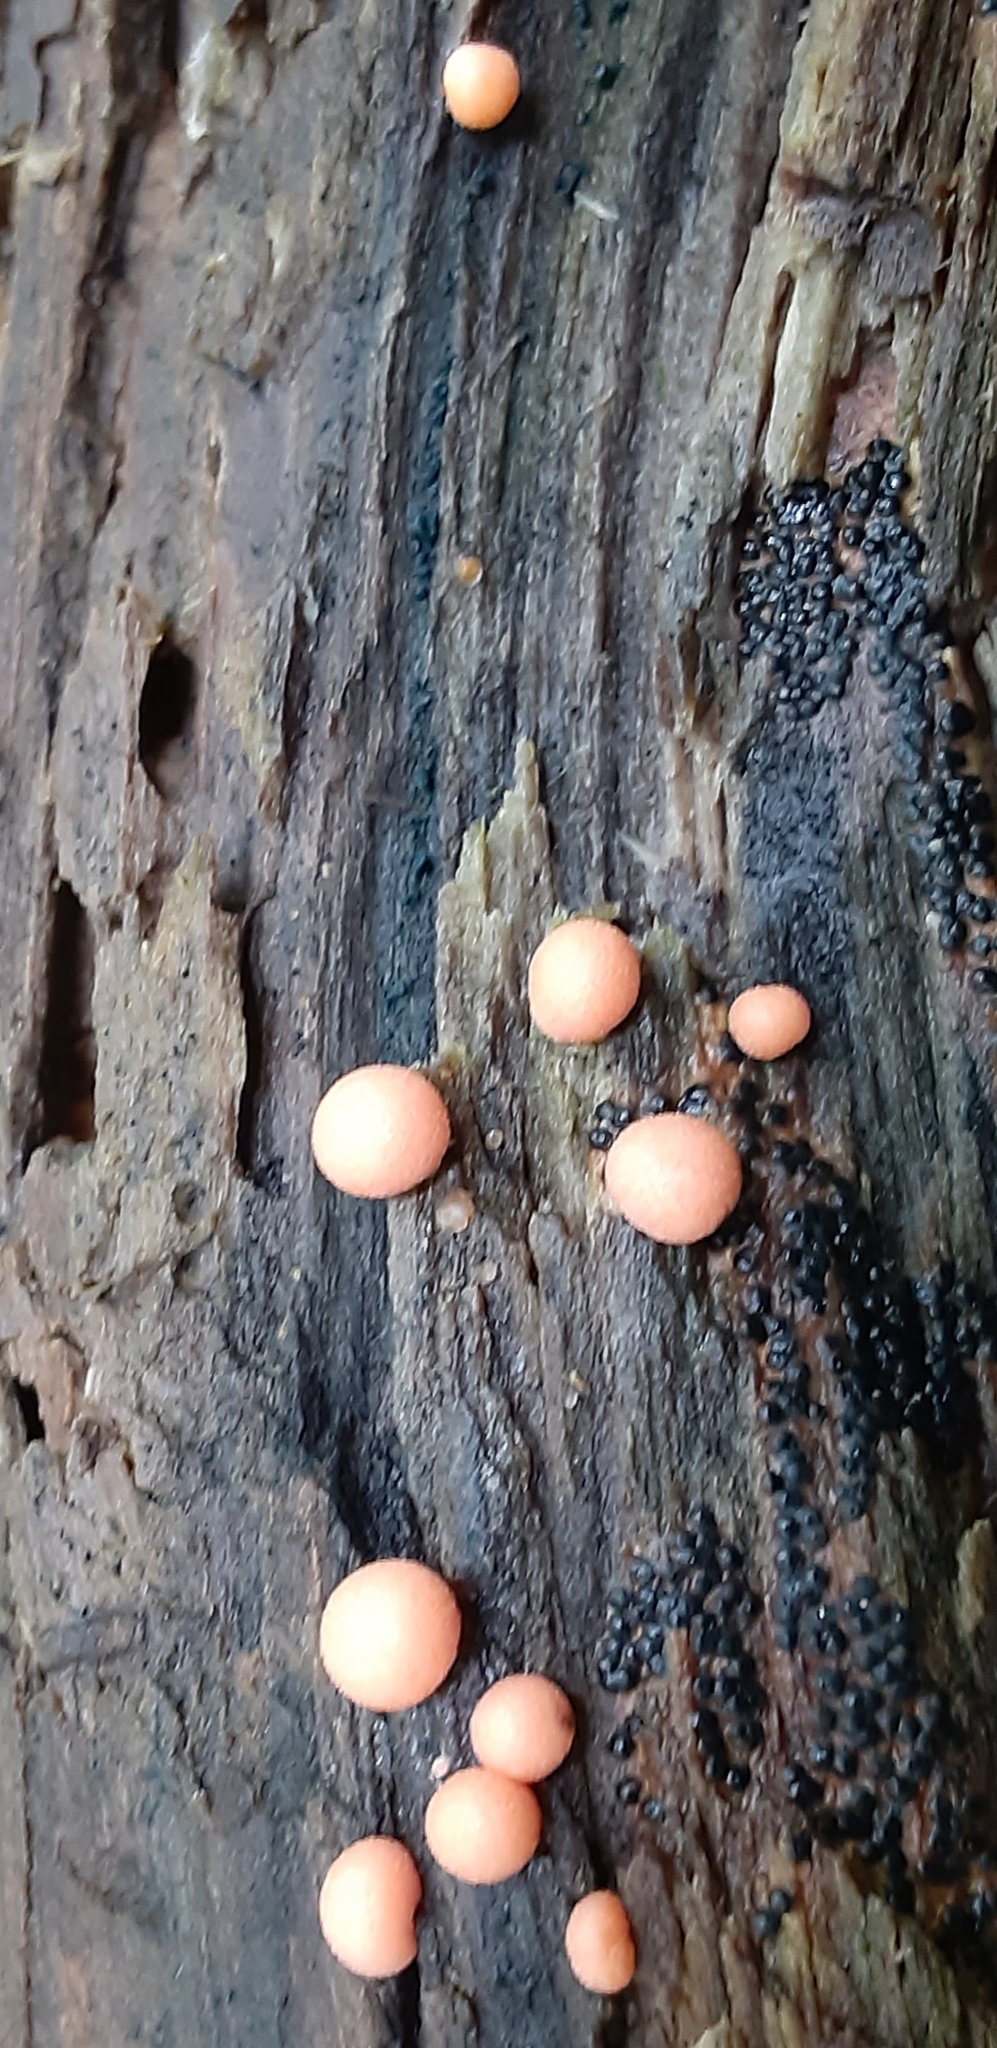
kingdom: Protozoa
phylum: Mycetozoa
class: Myxomycetes
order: Cribrariales
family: Tubiferaceae
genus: Lycogala
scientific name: Lycogala epidendrum
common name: Wolf's milk
